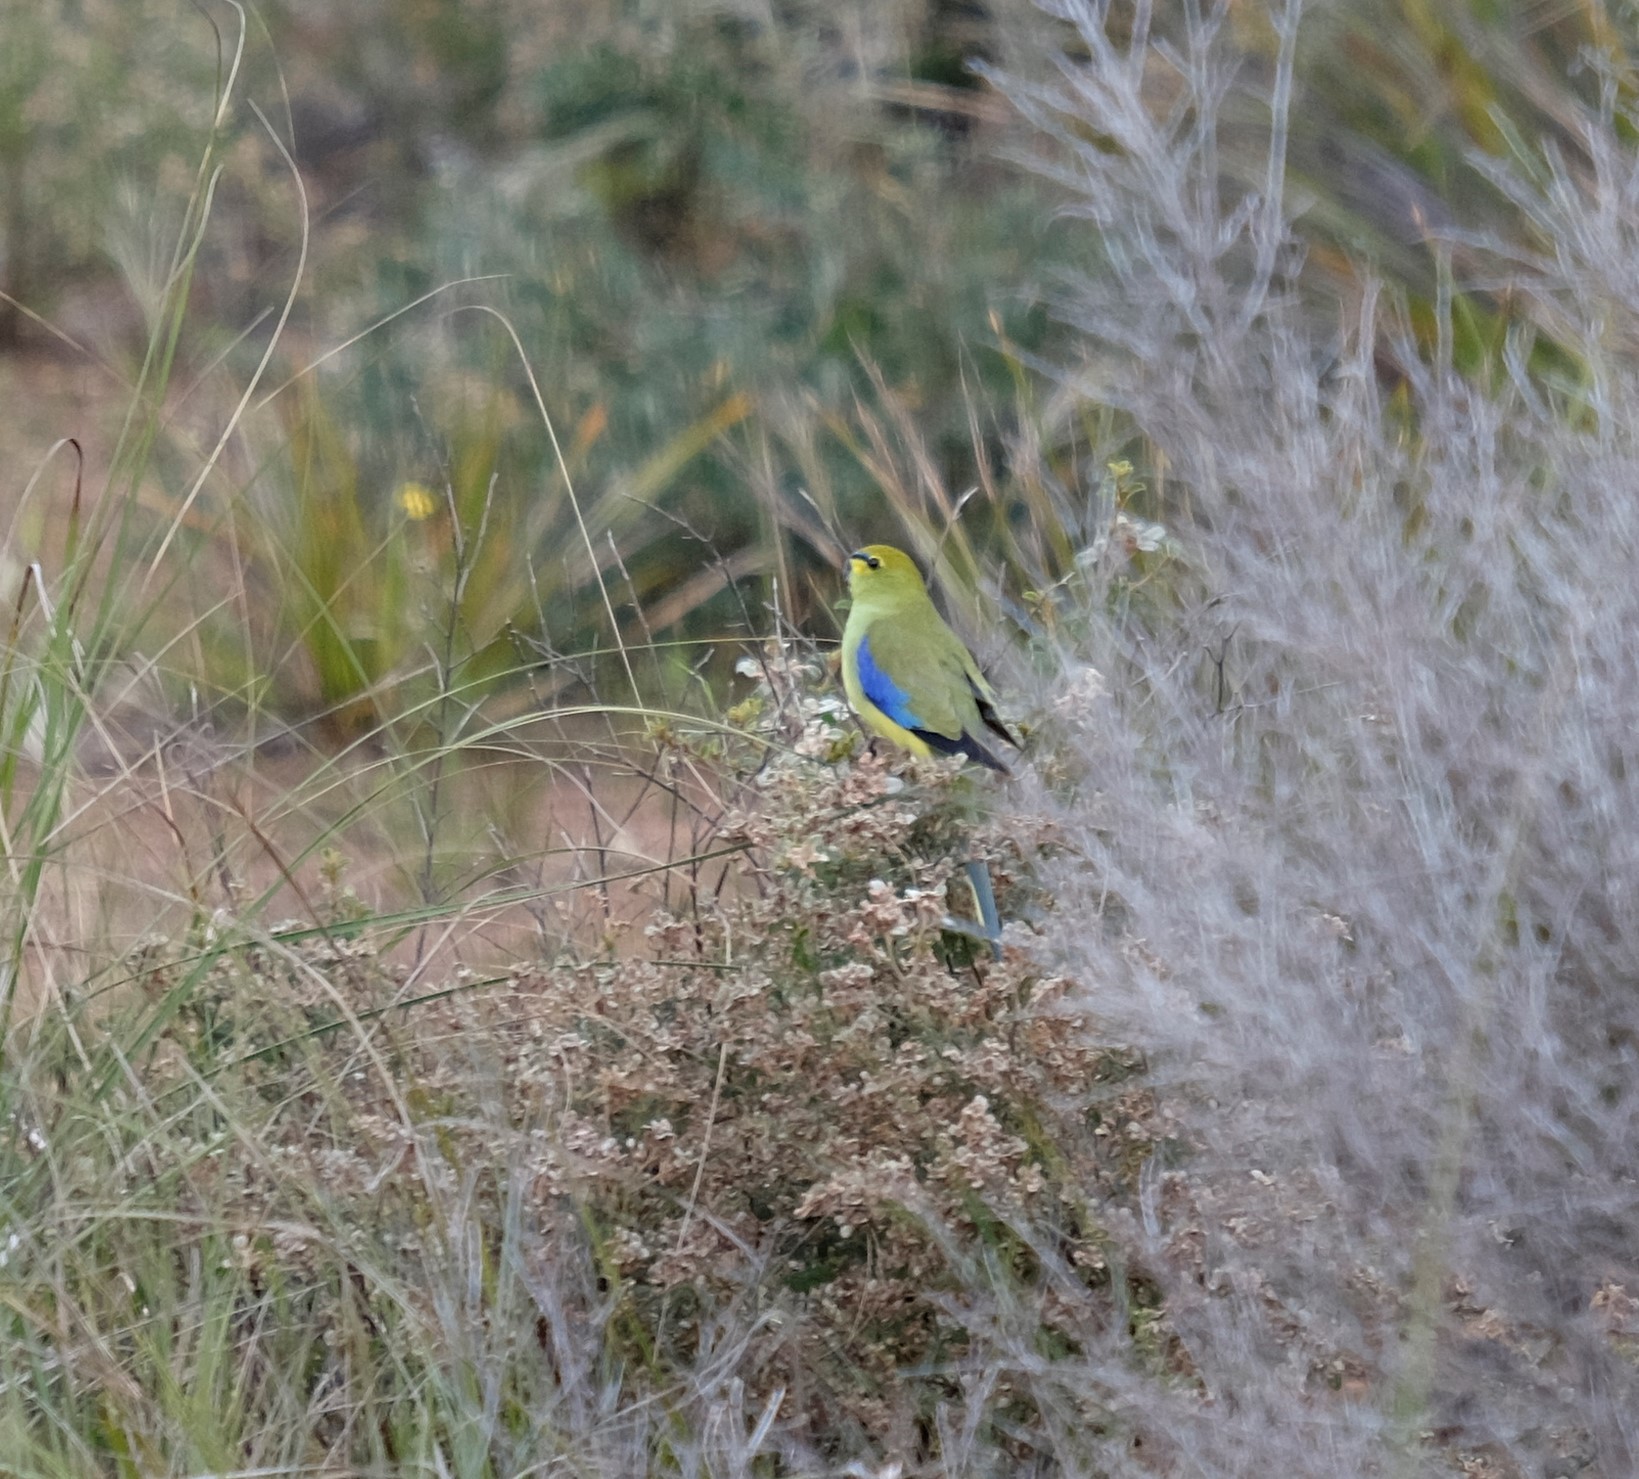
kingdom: Animalia
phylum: Chordata
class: Aves
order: Psittaciformes
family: Psittacidae
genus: Neophema
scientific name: Neophema chrysostoma
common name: Blue-winged parrot
